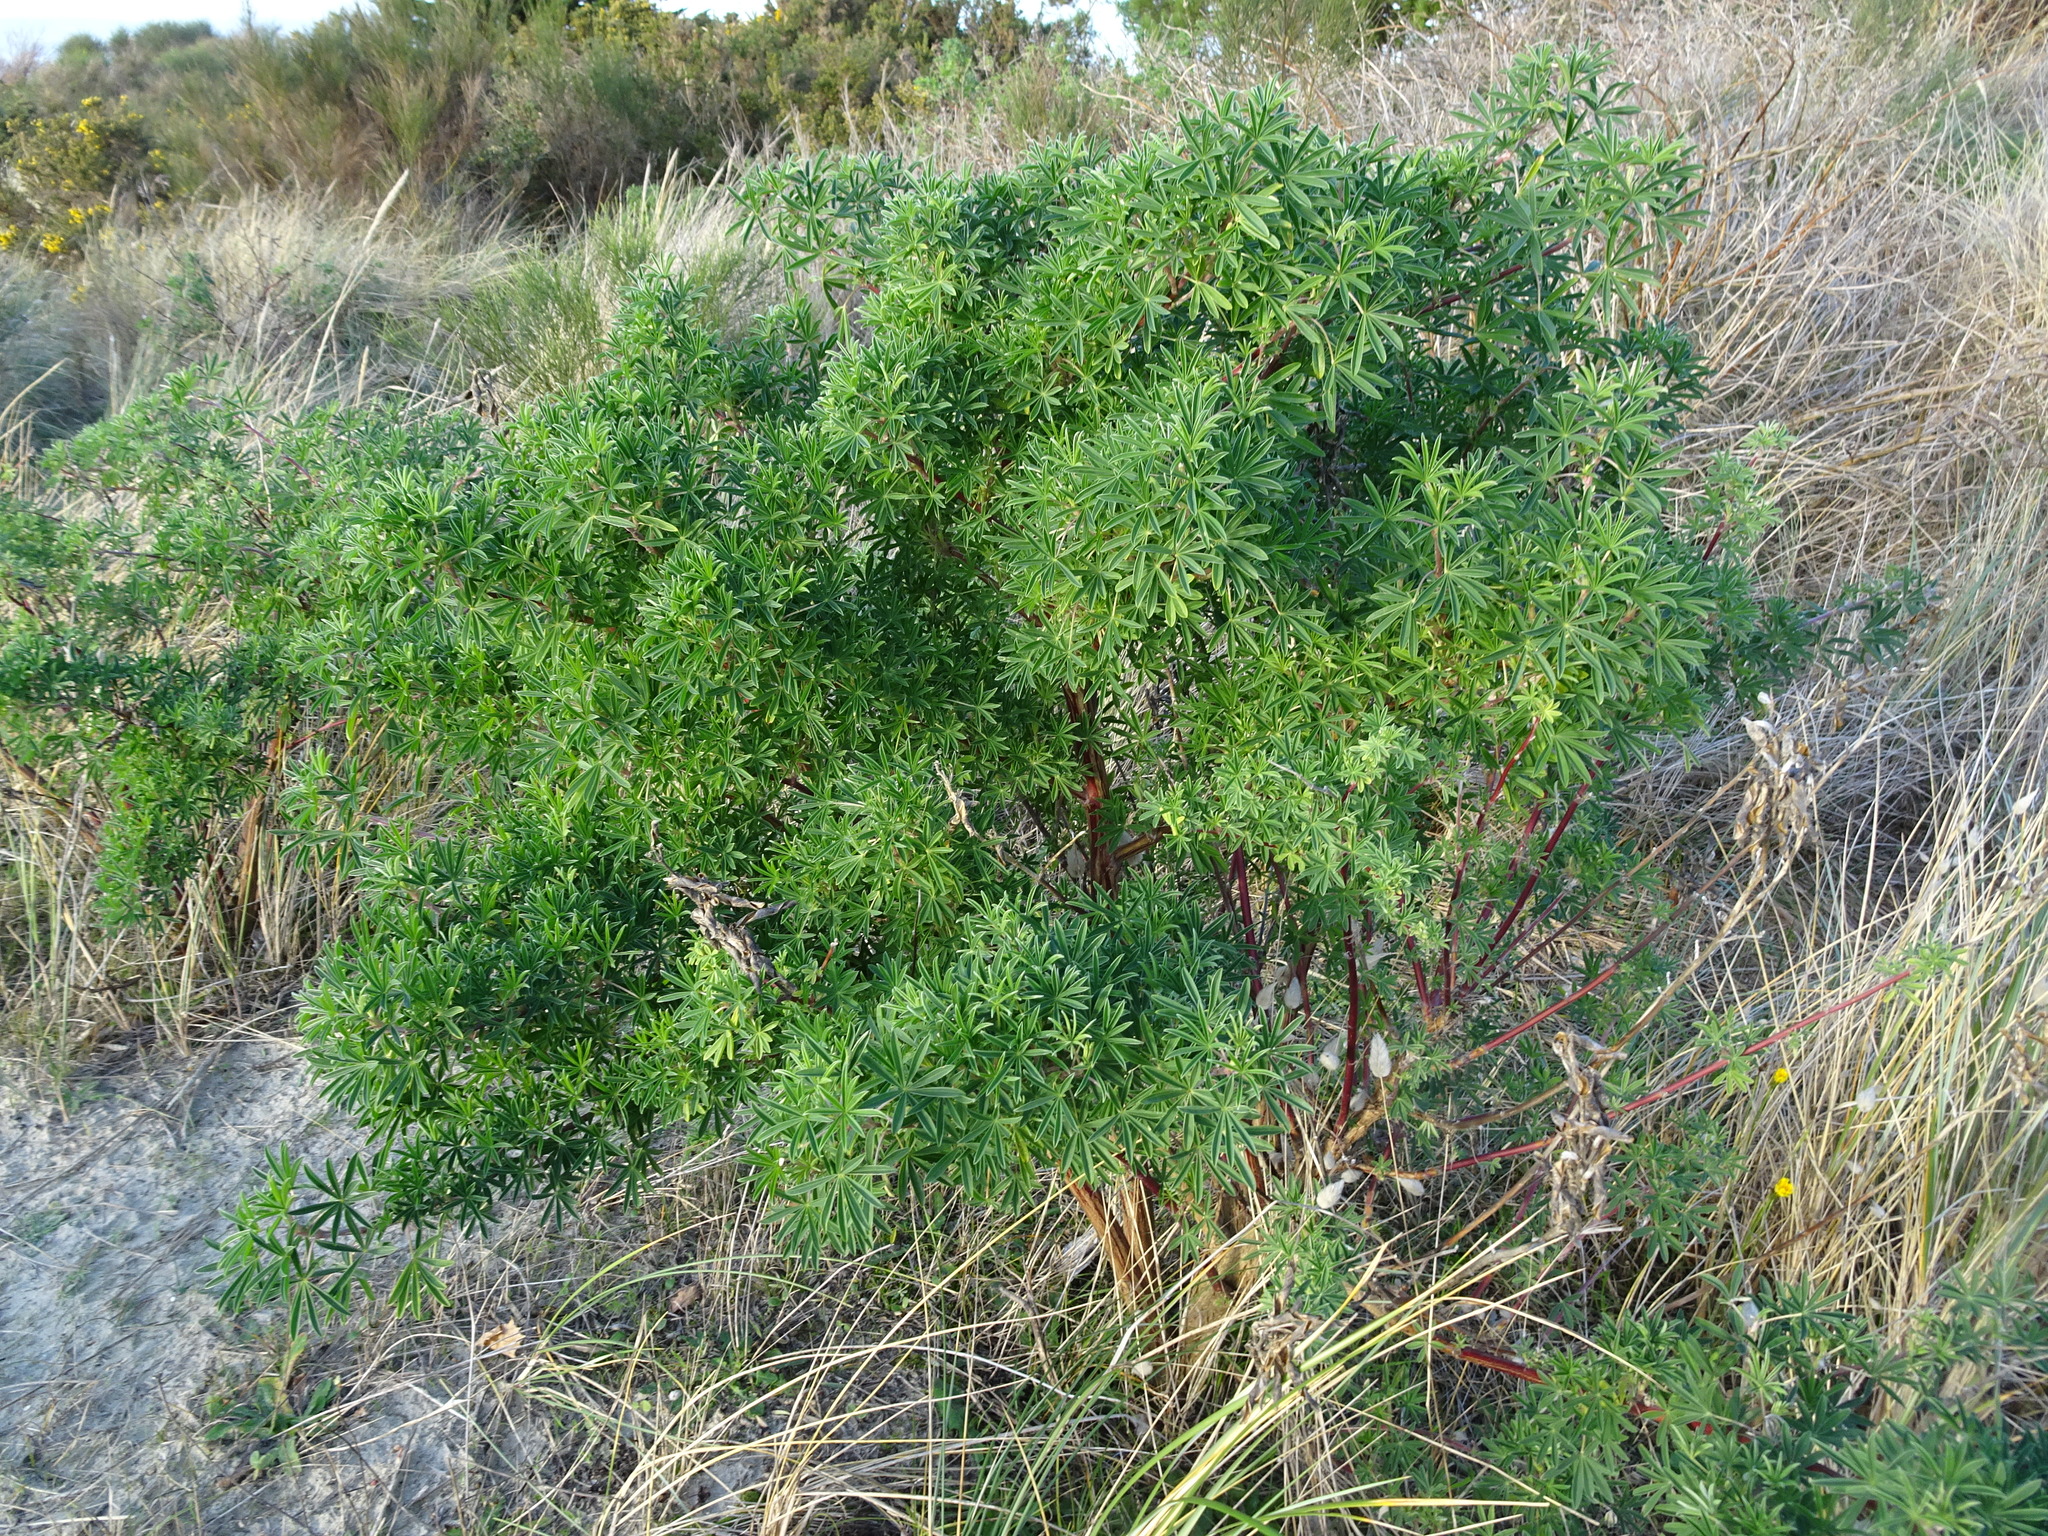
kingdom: Plantae
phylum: Tracheophyta
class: Magnoliopsida
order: Fabales
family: Fabaceae
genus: Lupinus
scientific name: Lupinus arboreus
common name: Yellow bush lupine
